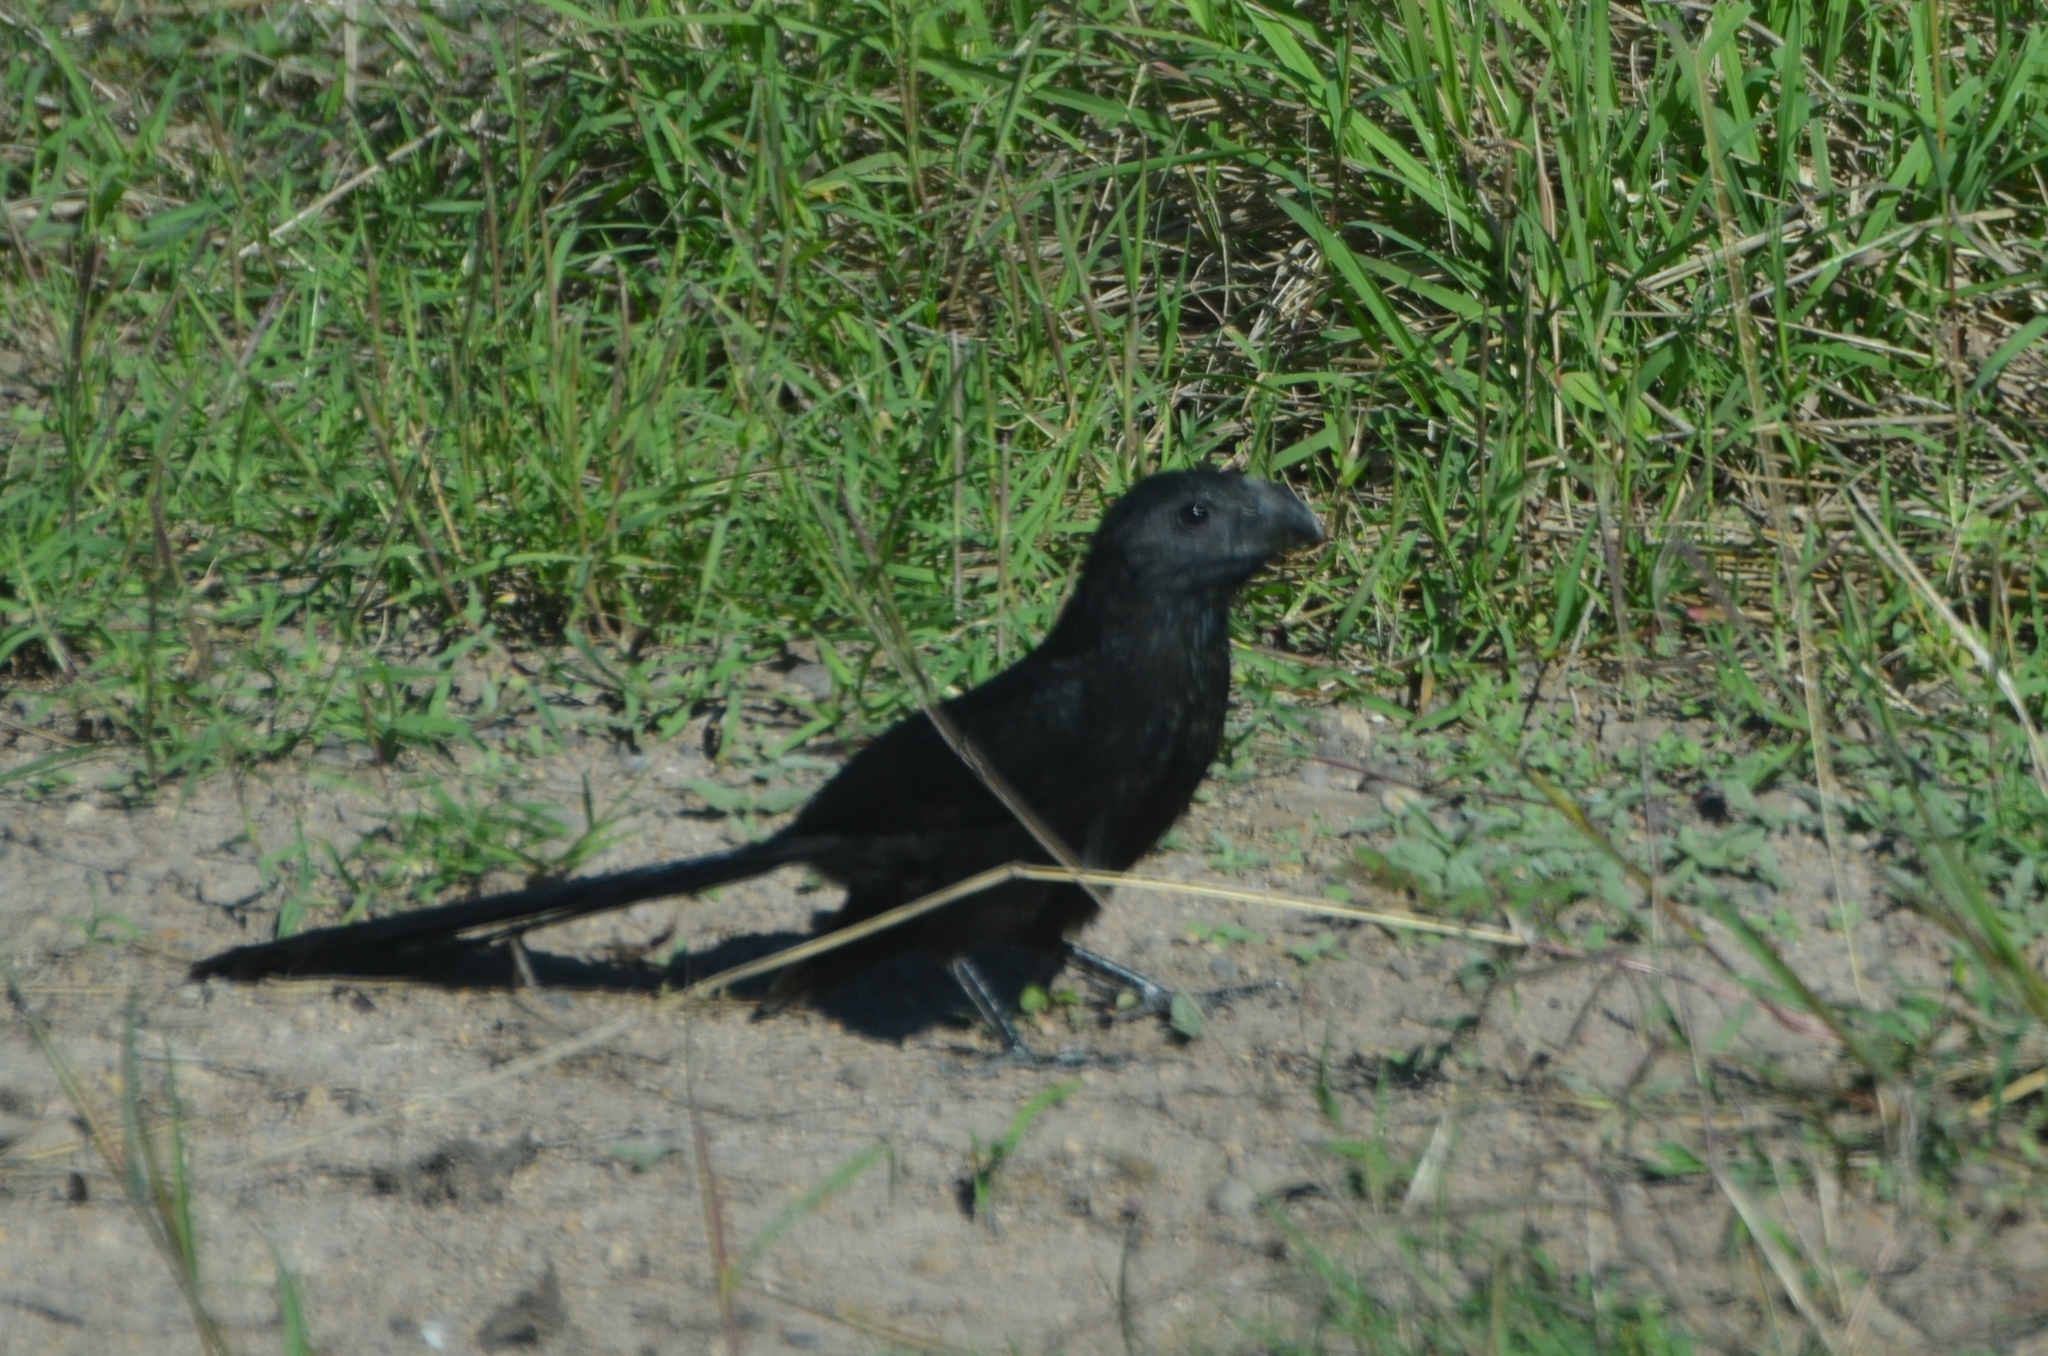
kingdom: Animalia
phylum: Chordata
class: Aves
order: Cuculiformes
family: Cuculidae
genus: Crotophaga
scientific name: Crotophaga sulcirostris
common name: Groove-billed ani
